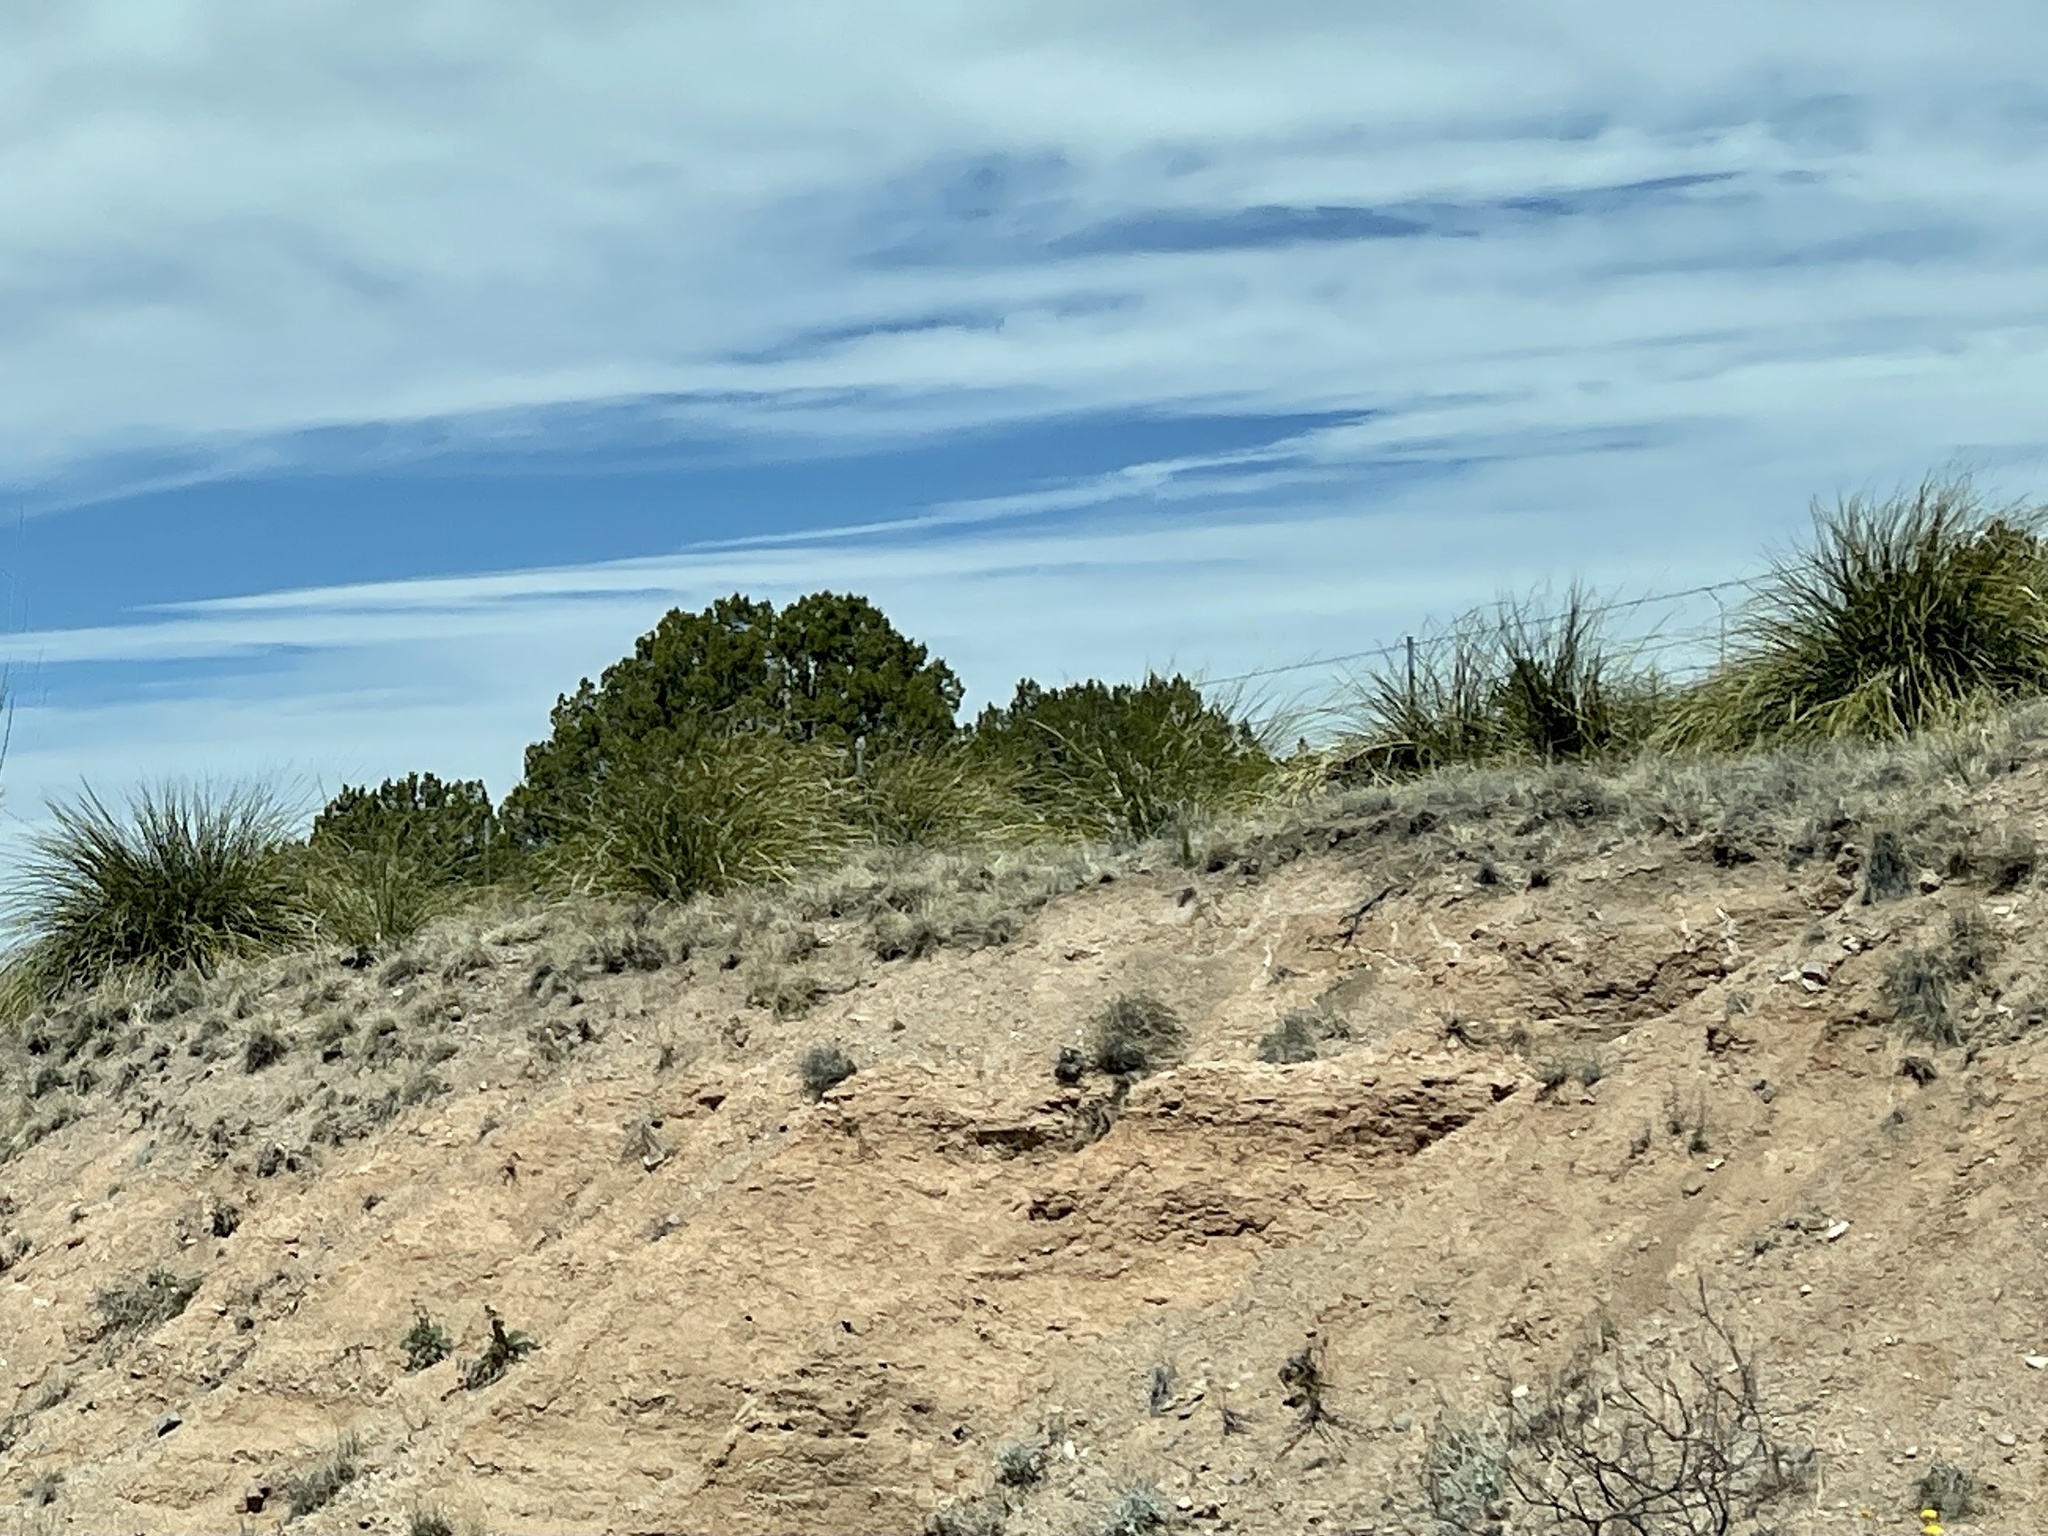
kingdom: Plantae
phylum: Tracheophyta
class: Liliopsida
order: Asparagales
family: Asparagaceae
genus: Nolina
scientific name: Nolina microcarpa
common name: Bear-grass
